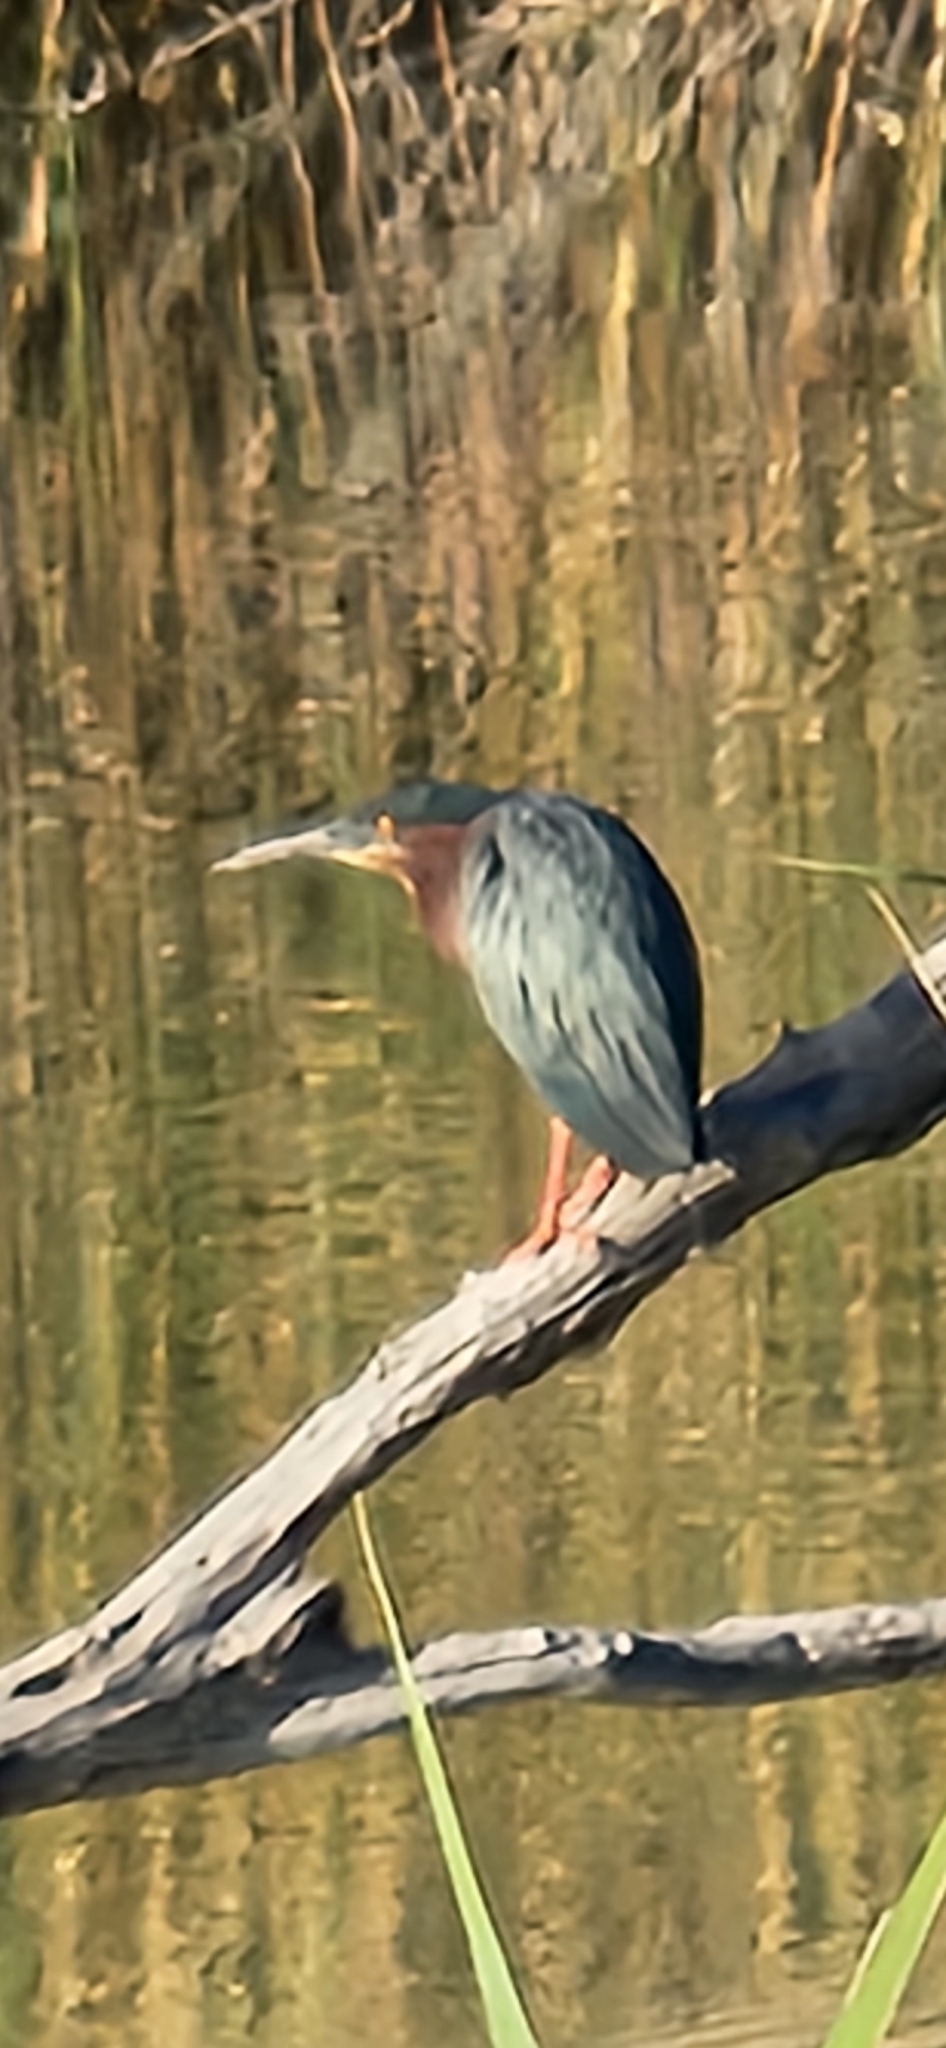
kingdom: Animalia
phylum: Chordata
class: Aves
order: Pelecaniformes
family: Ardeidae
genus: Butorides
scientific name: Butorides virescens
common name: Green heron
